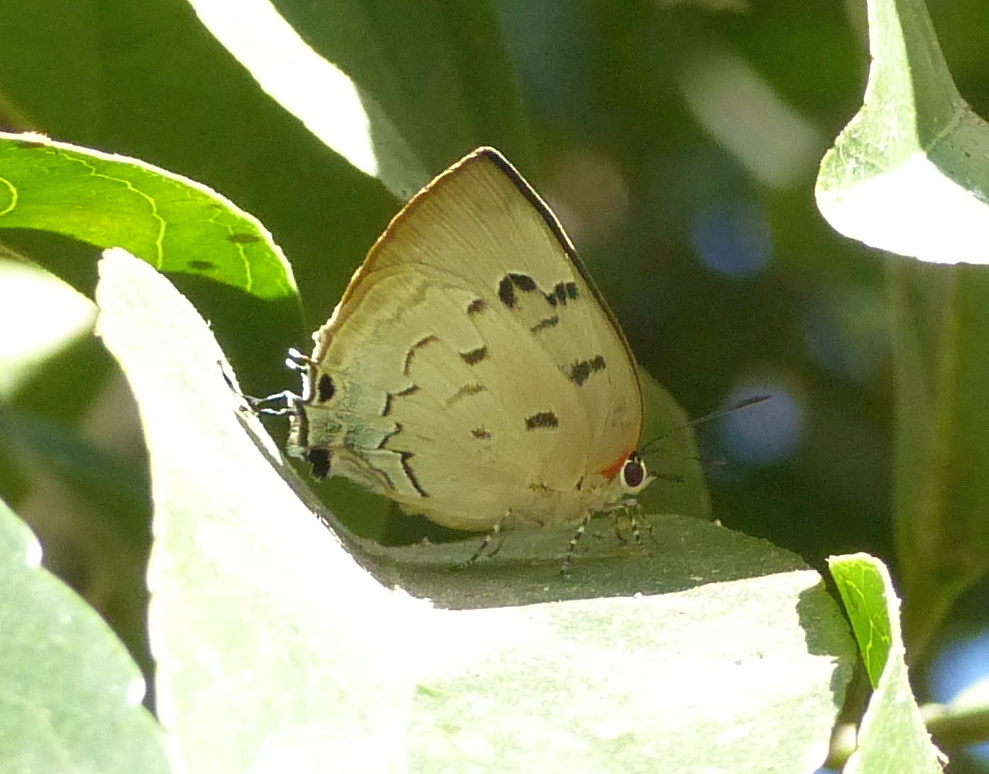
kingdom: Animalia
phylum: Arthropoda
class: Insecta
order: Lepidoptera
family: Lycaenidae
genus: Panthiades
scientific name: Panthiades hebraeus
